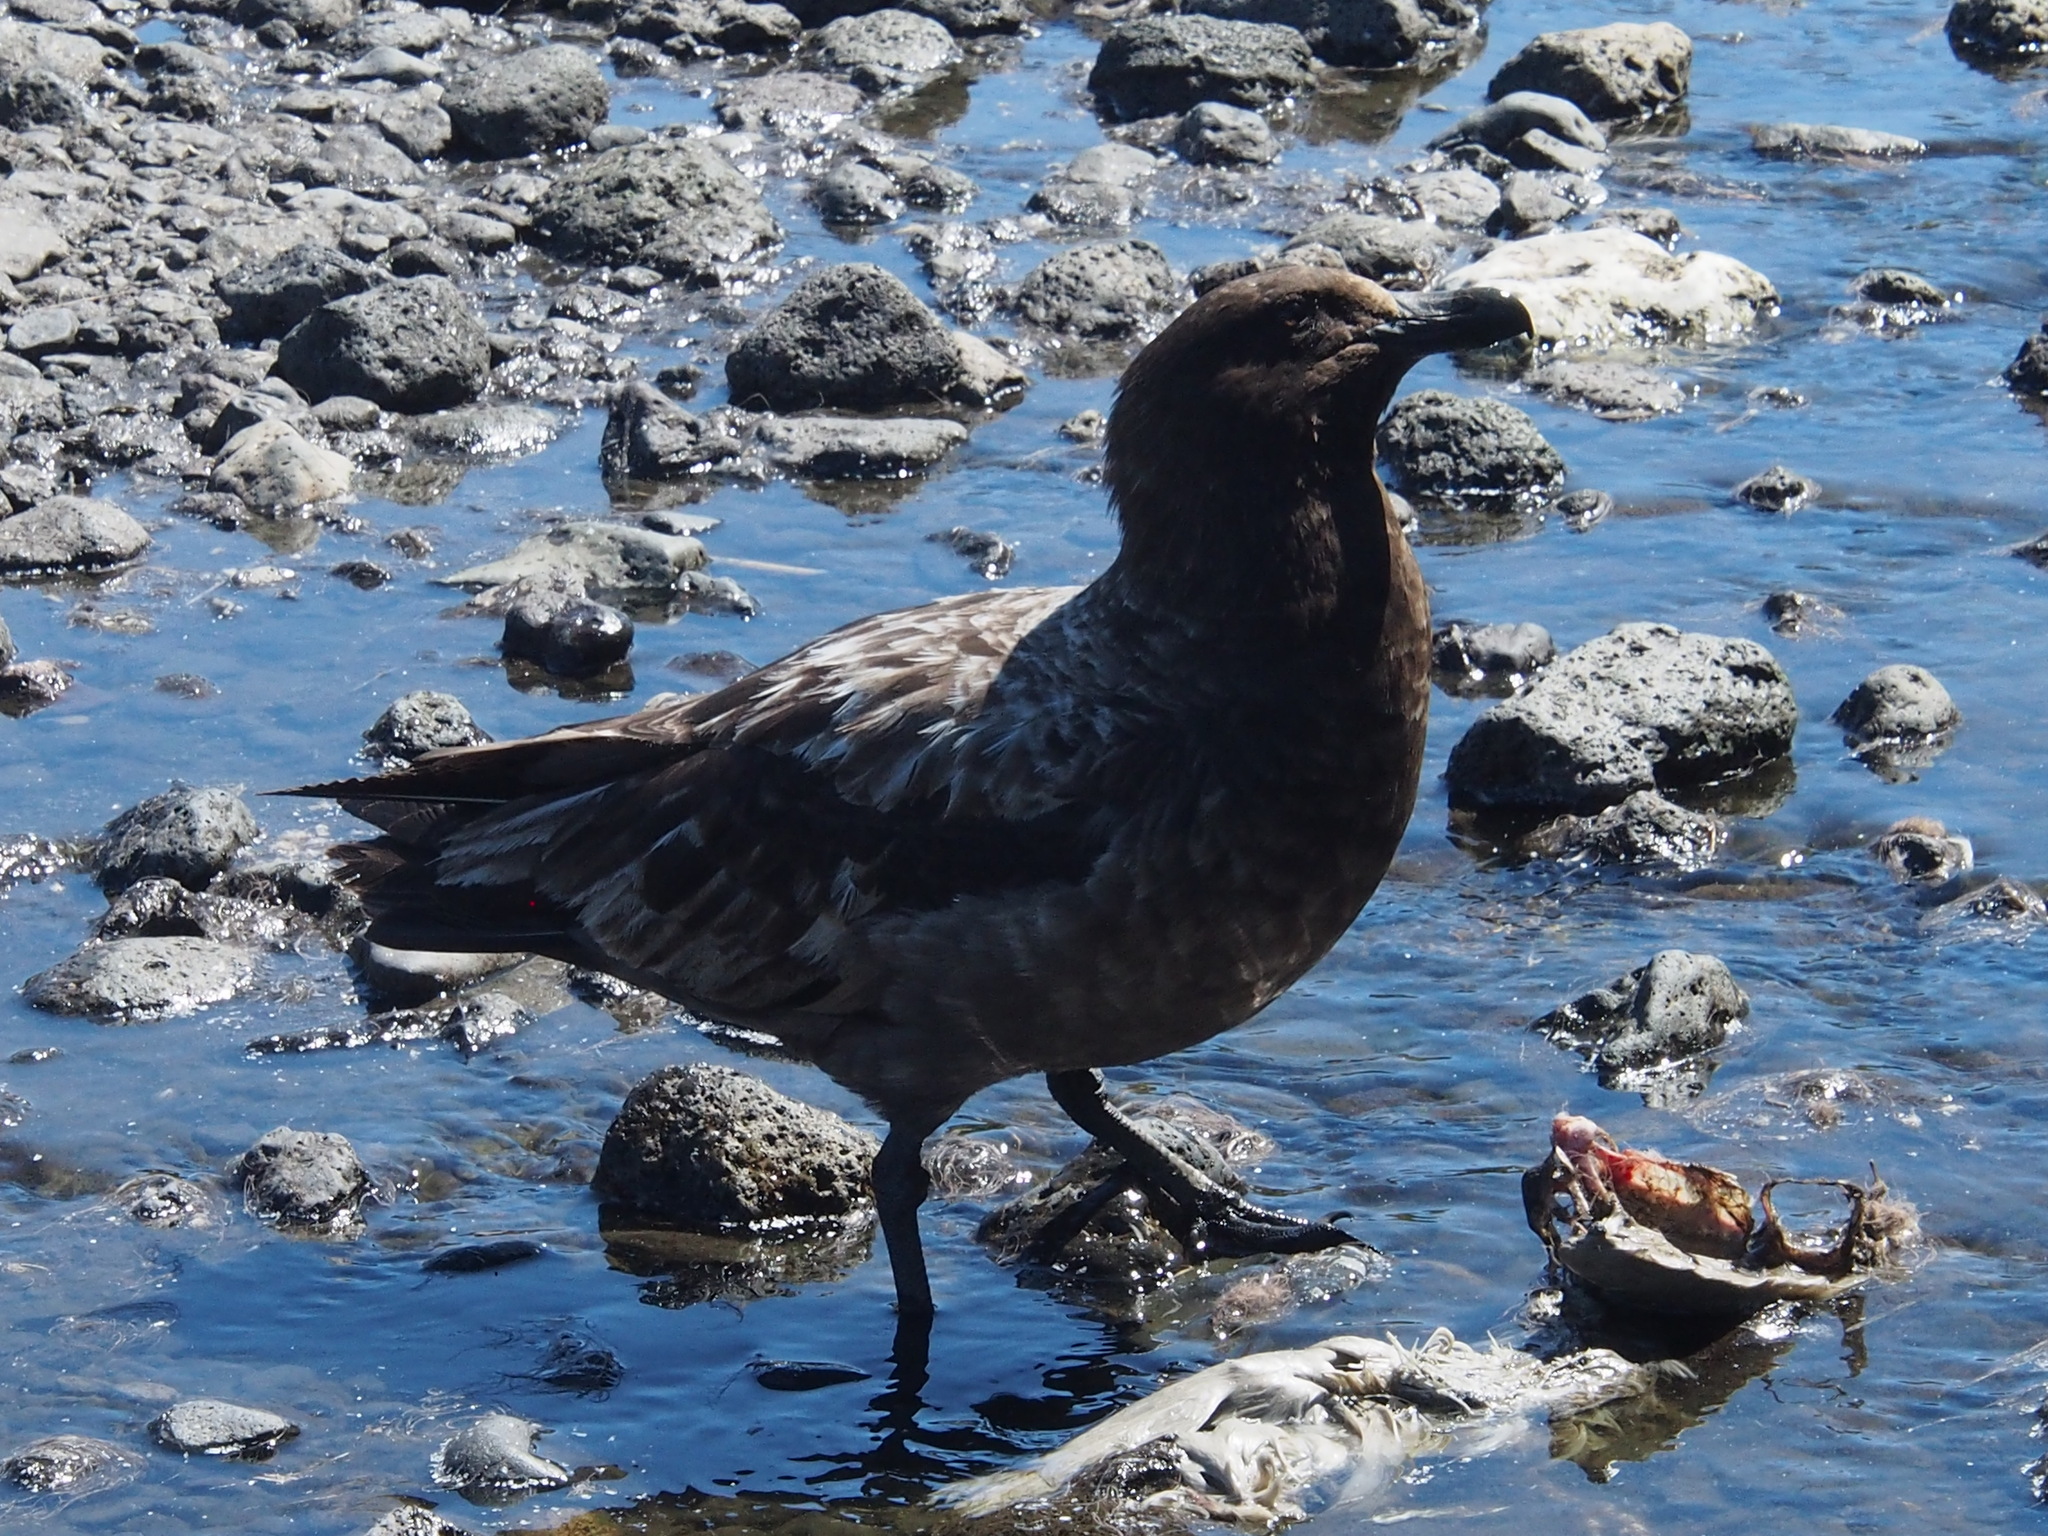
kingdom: Animalia
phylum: Chordata
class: Aves
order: Charadriiformes
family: Stercorariidae
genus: Stercorarius
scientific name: Stercorarius antarcticus
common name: Brown skua
